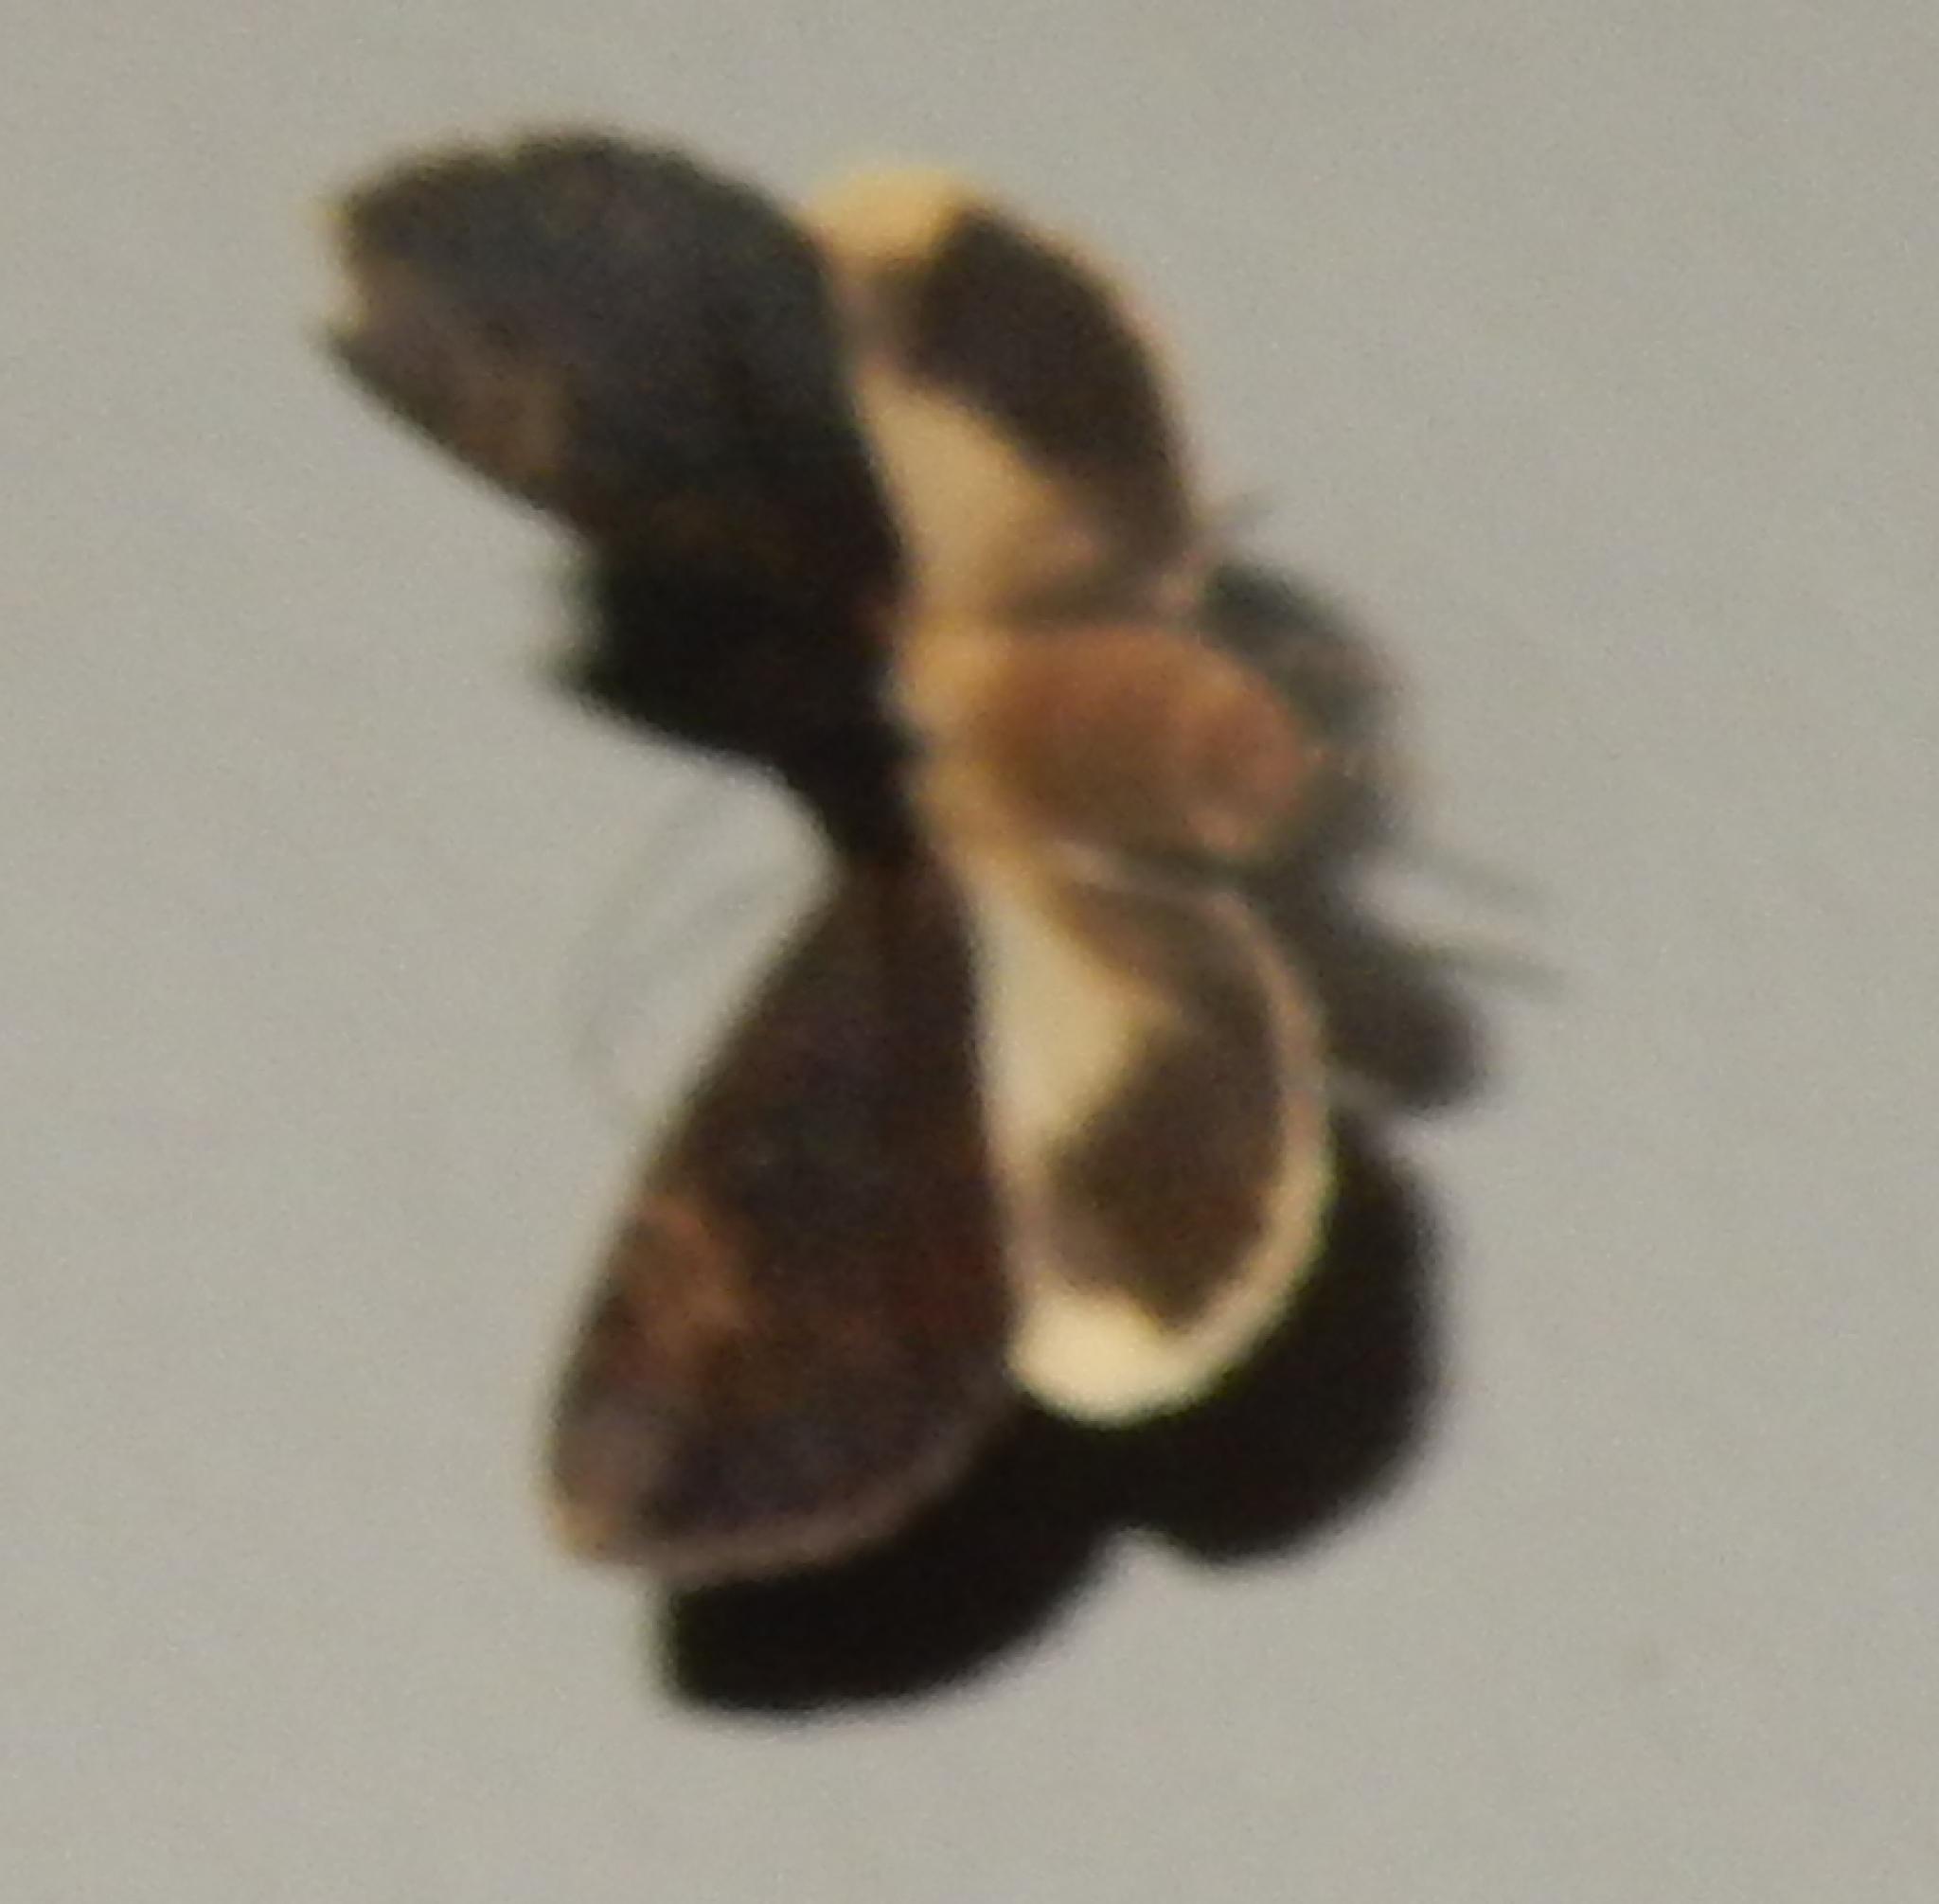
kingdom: Animalia
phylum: Arthropoda
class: Insecta
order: Lepidoptera
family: Erebidae
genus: Ulotrichopus
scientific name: Ulotrichopus mesoleuca
